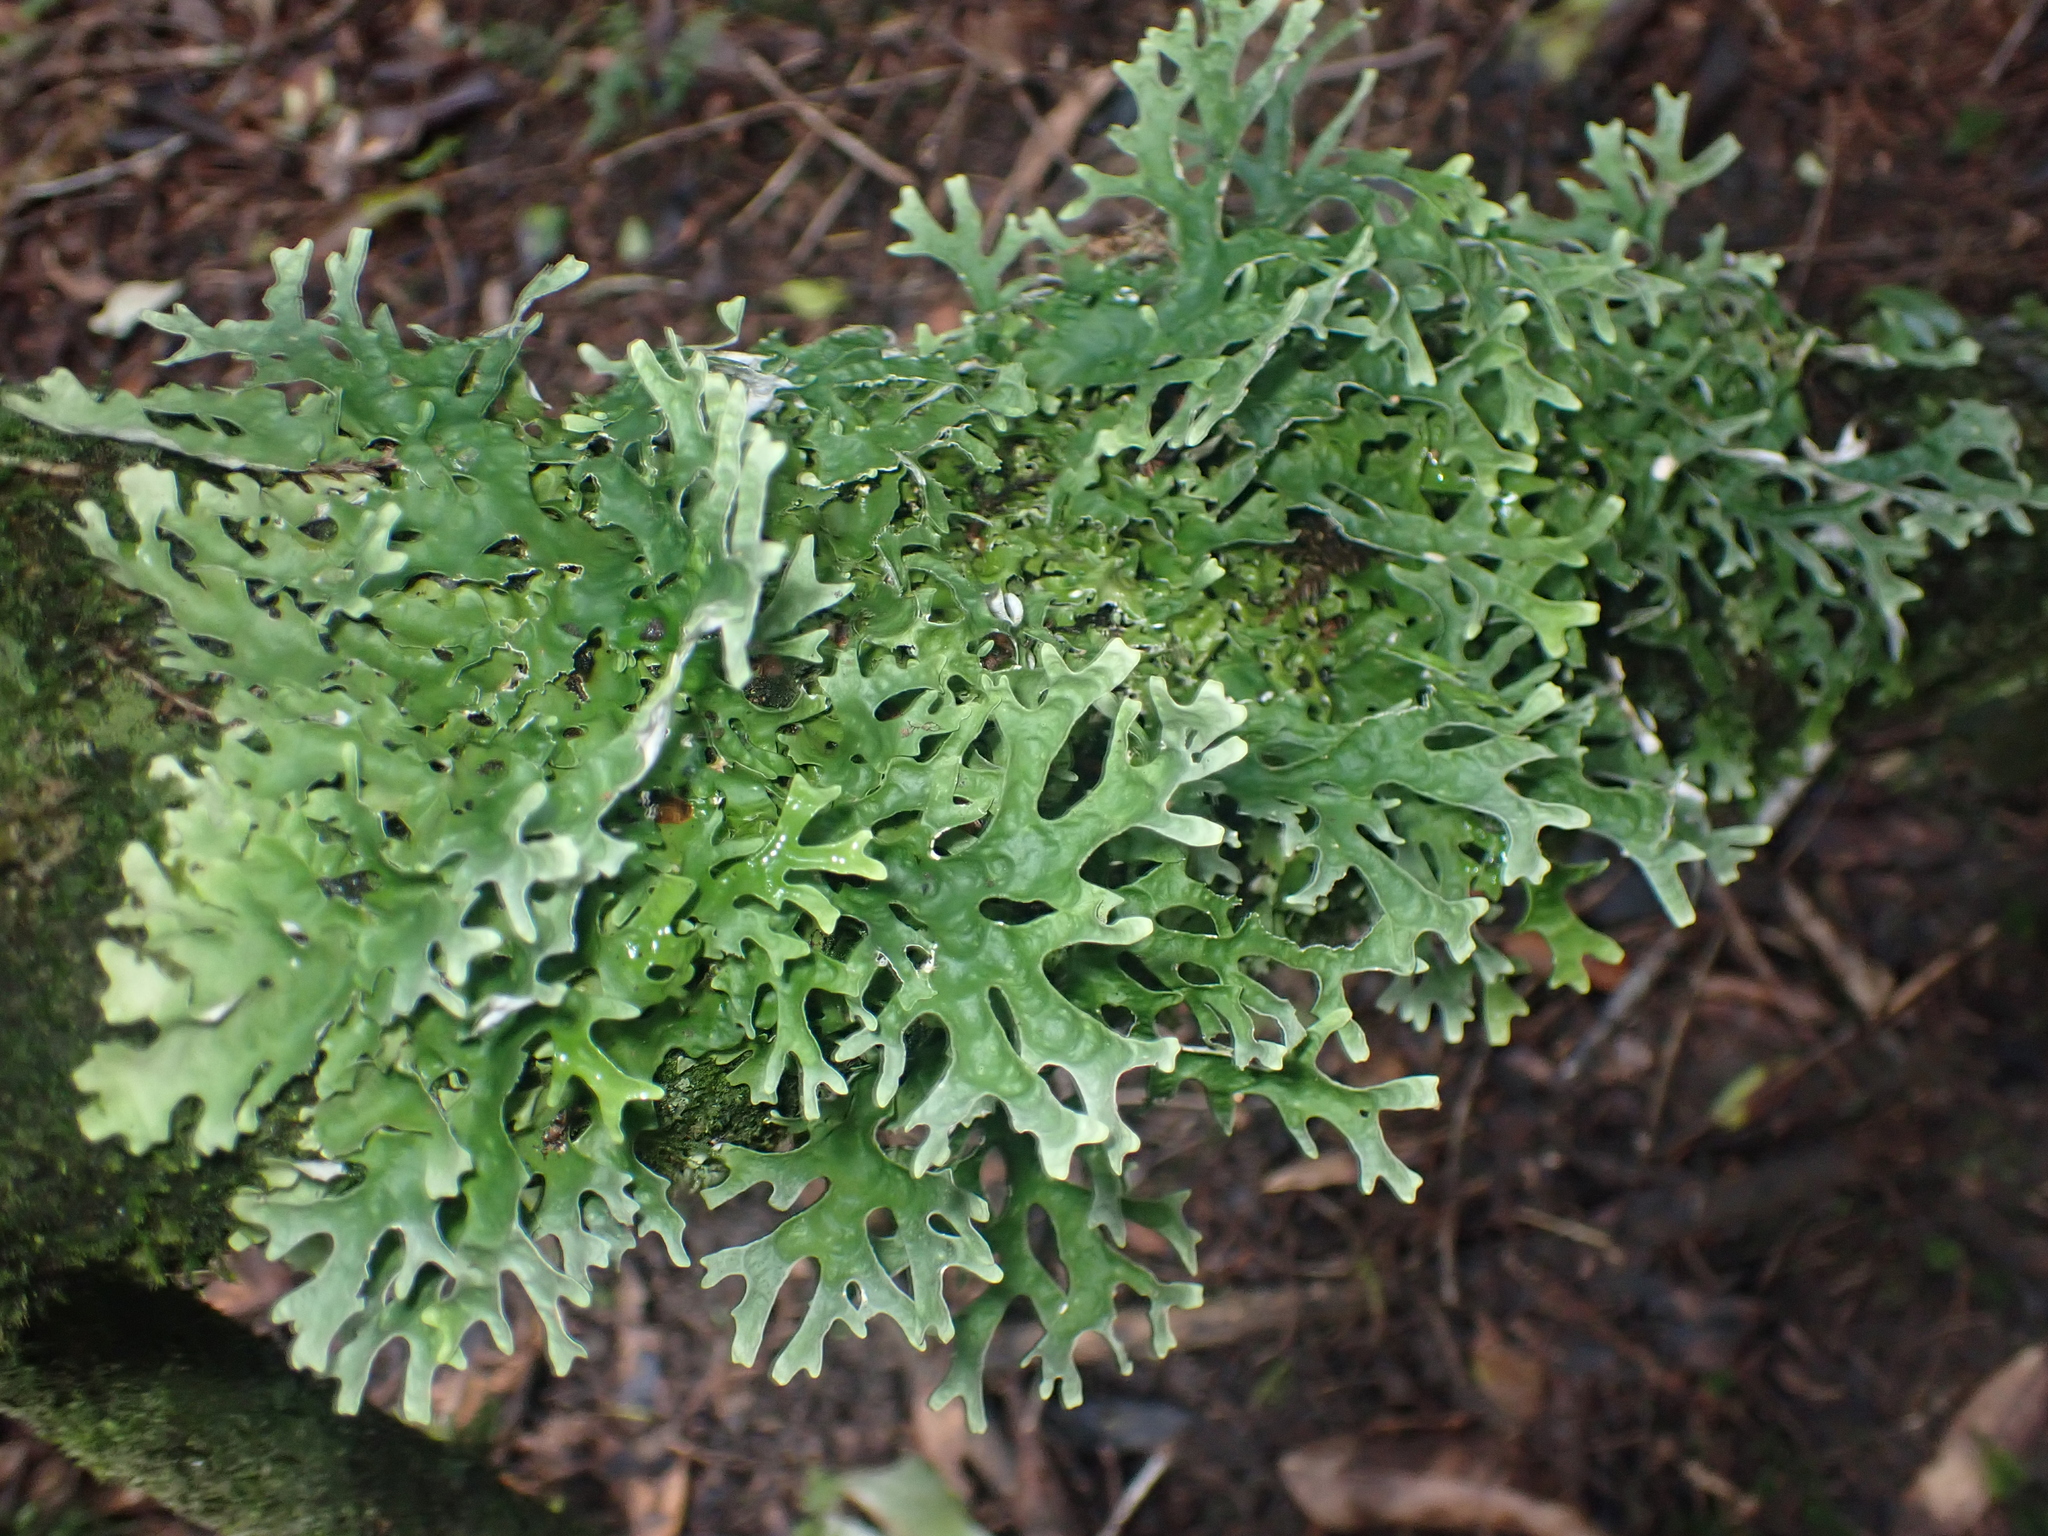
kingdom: Fungi
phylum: Ascomycota
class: Lecanoromycetes
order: Peltigerales
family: Lobariaceae
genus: Pseudocyphellaria
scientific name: Pseudocyphellaria rufovirescens
